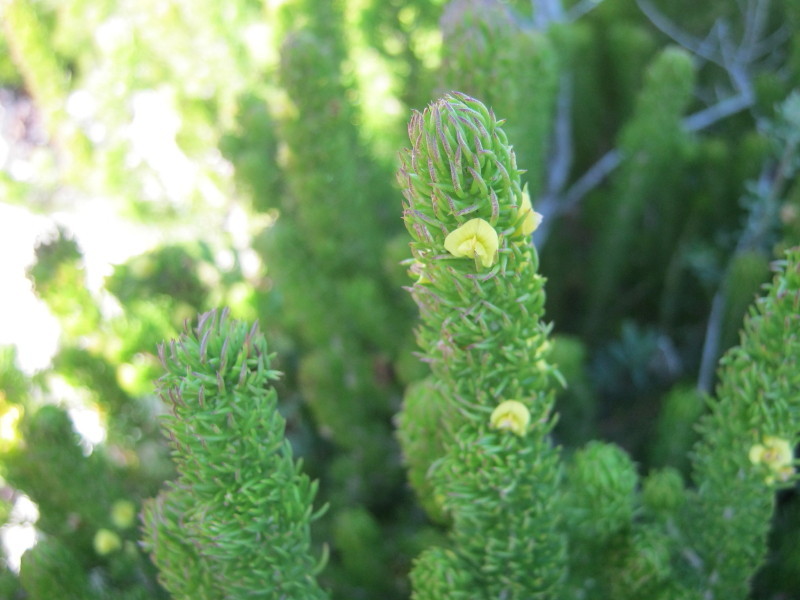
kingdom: Plantae
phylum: Tracheophyta
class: Magnoliopsida
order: Fabales
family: Fabaceae
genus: Aspalathus
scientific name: Aspalathus alopecurus
